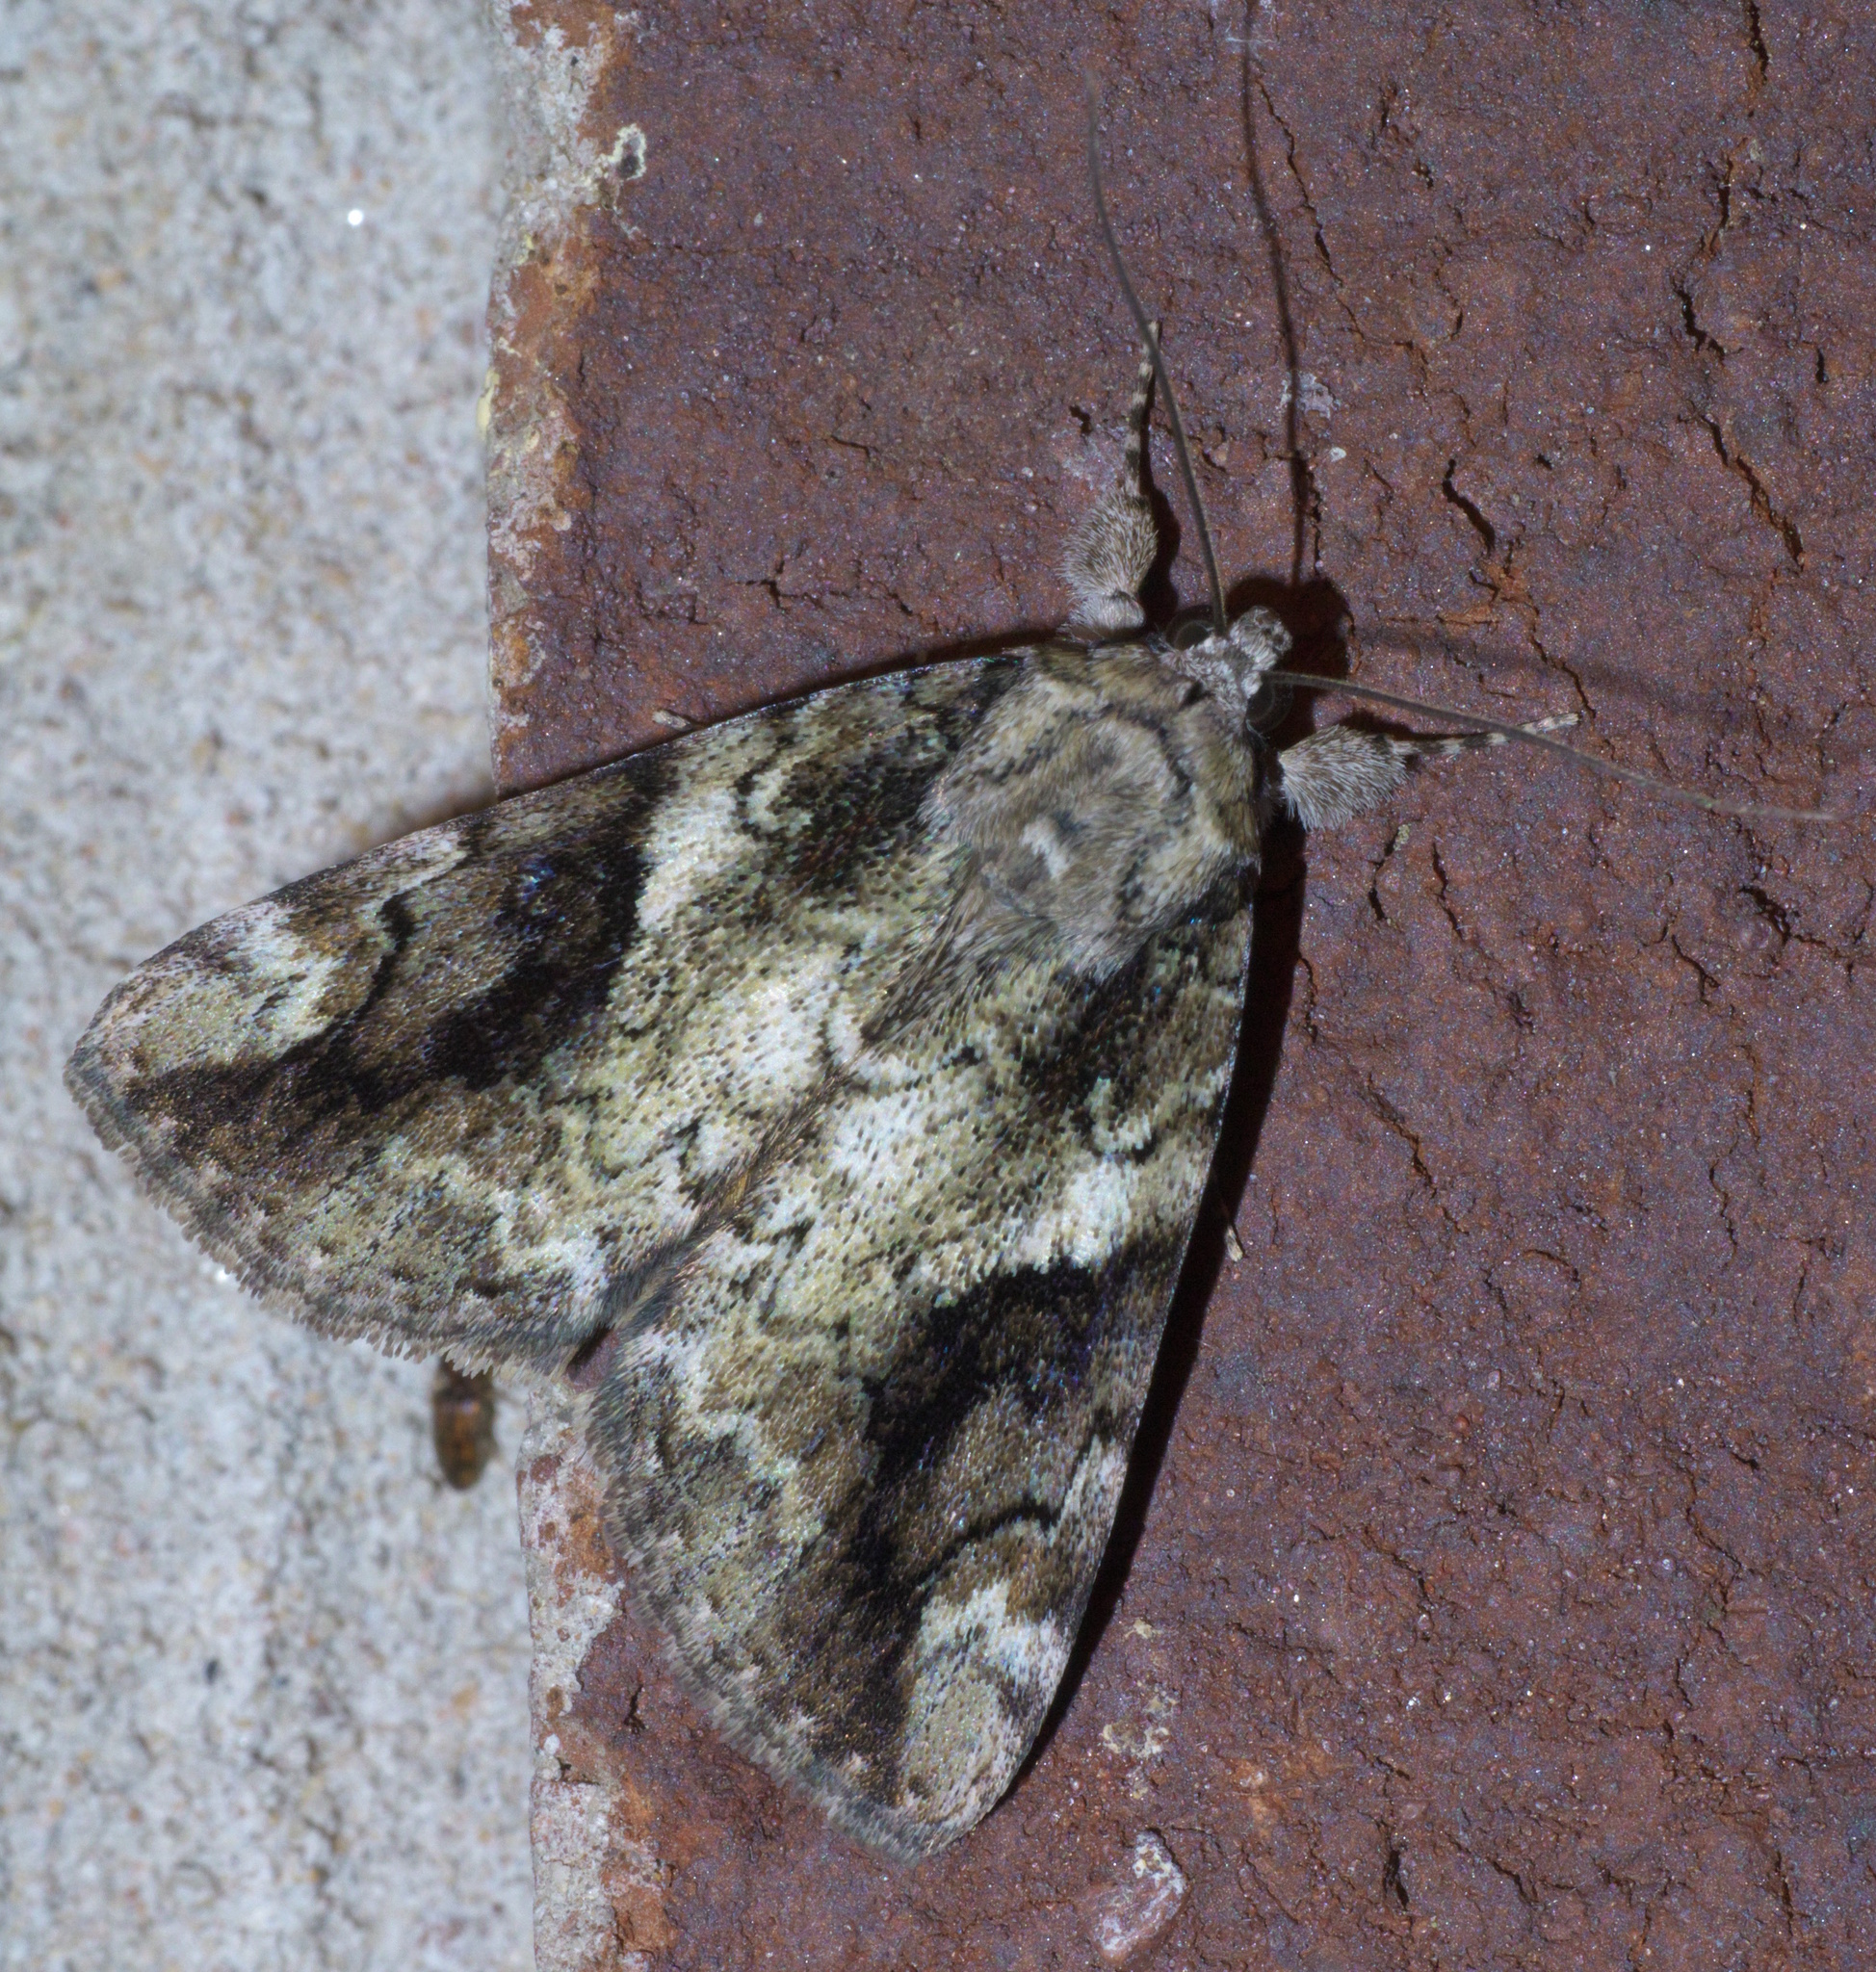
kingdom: Animalia
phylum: Arthropoda
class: Insecta
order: Lepidoptera
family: Erebidae
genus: Catocala
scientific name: Catocala micronympha
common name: Little nymph underwing
